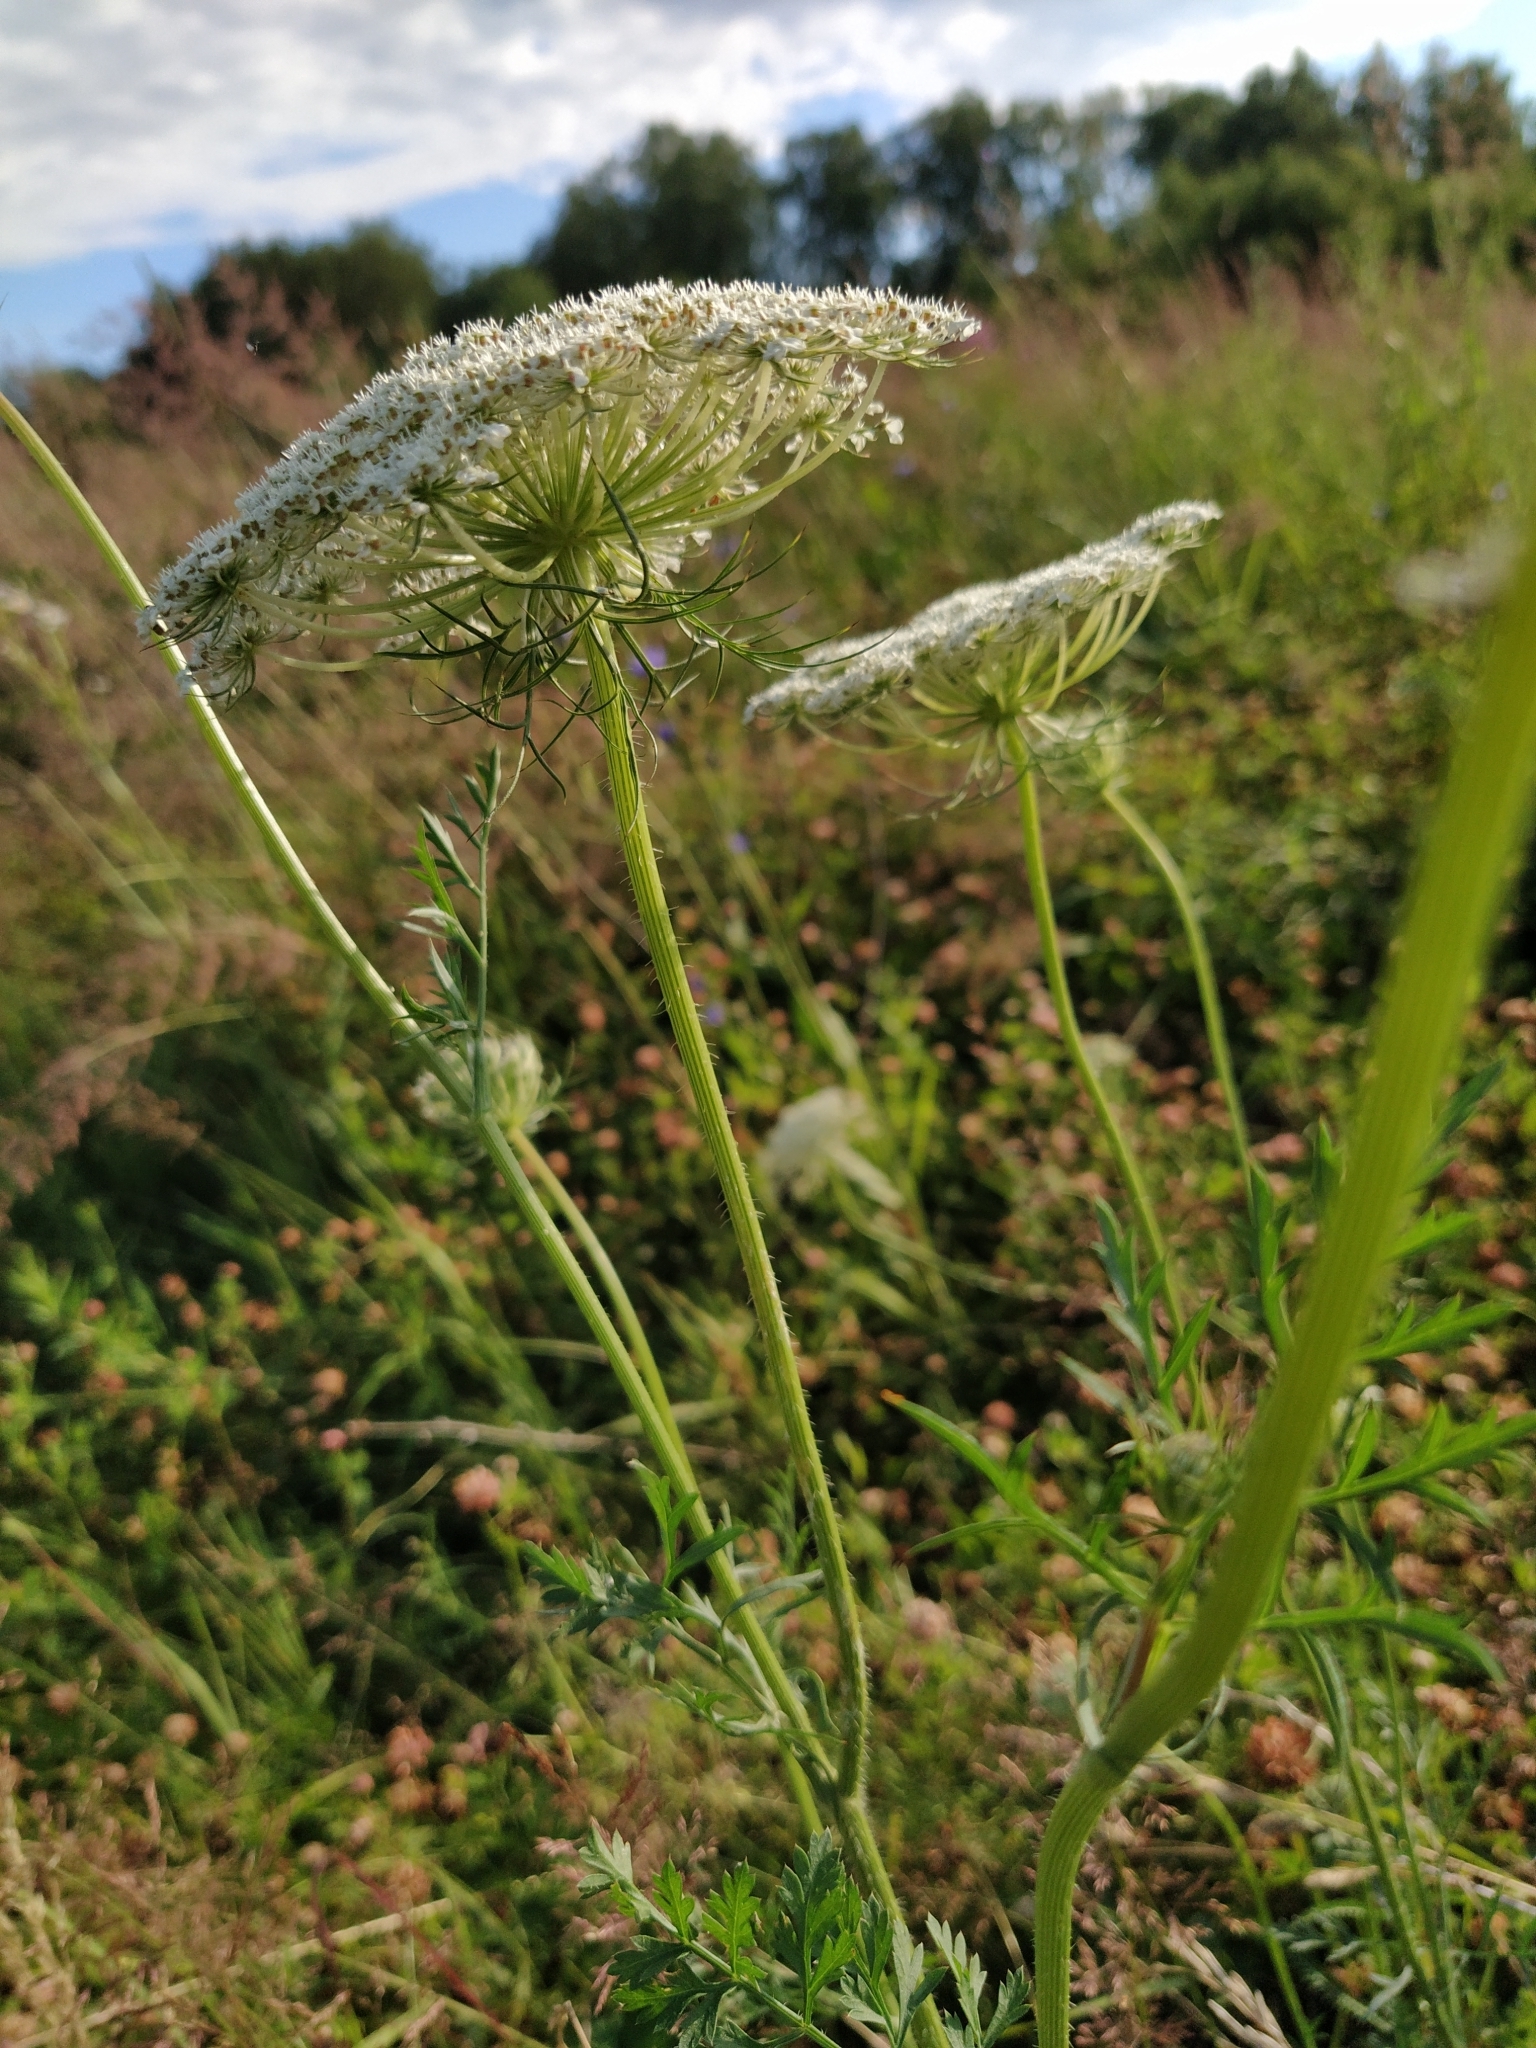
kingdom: Plantae
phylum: Tracheophyta
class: Magnoliopsida
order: Apiales
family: Apiaceae
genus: Daucus
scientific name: Daucus carota
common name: Wild carrot
